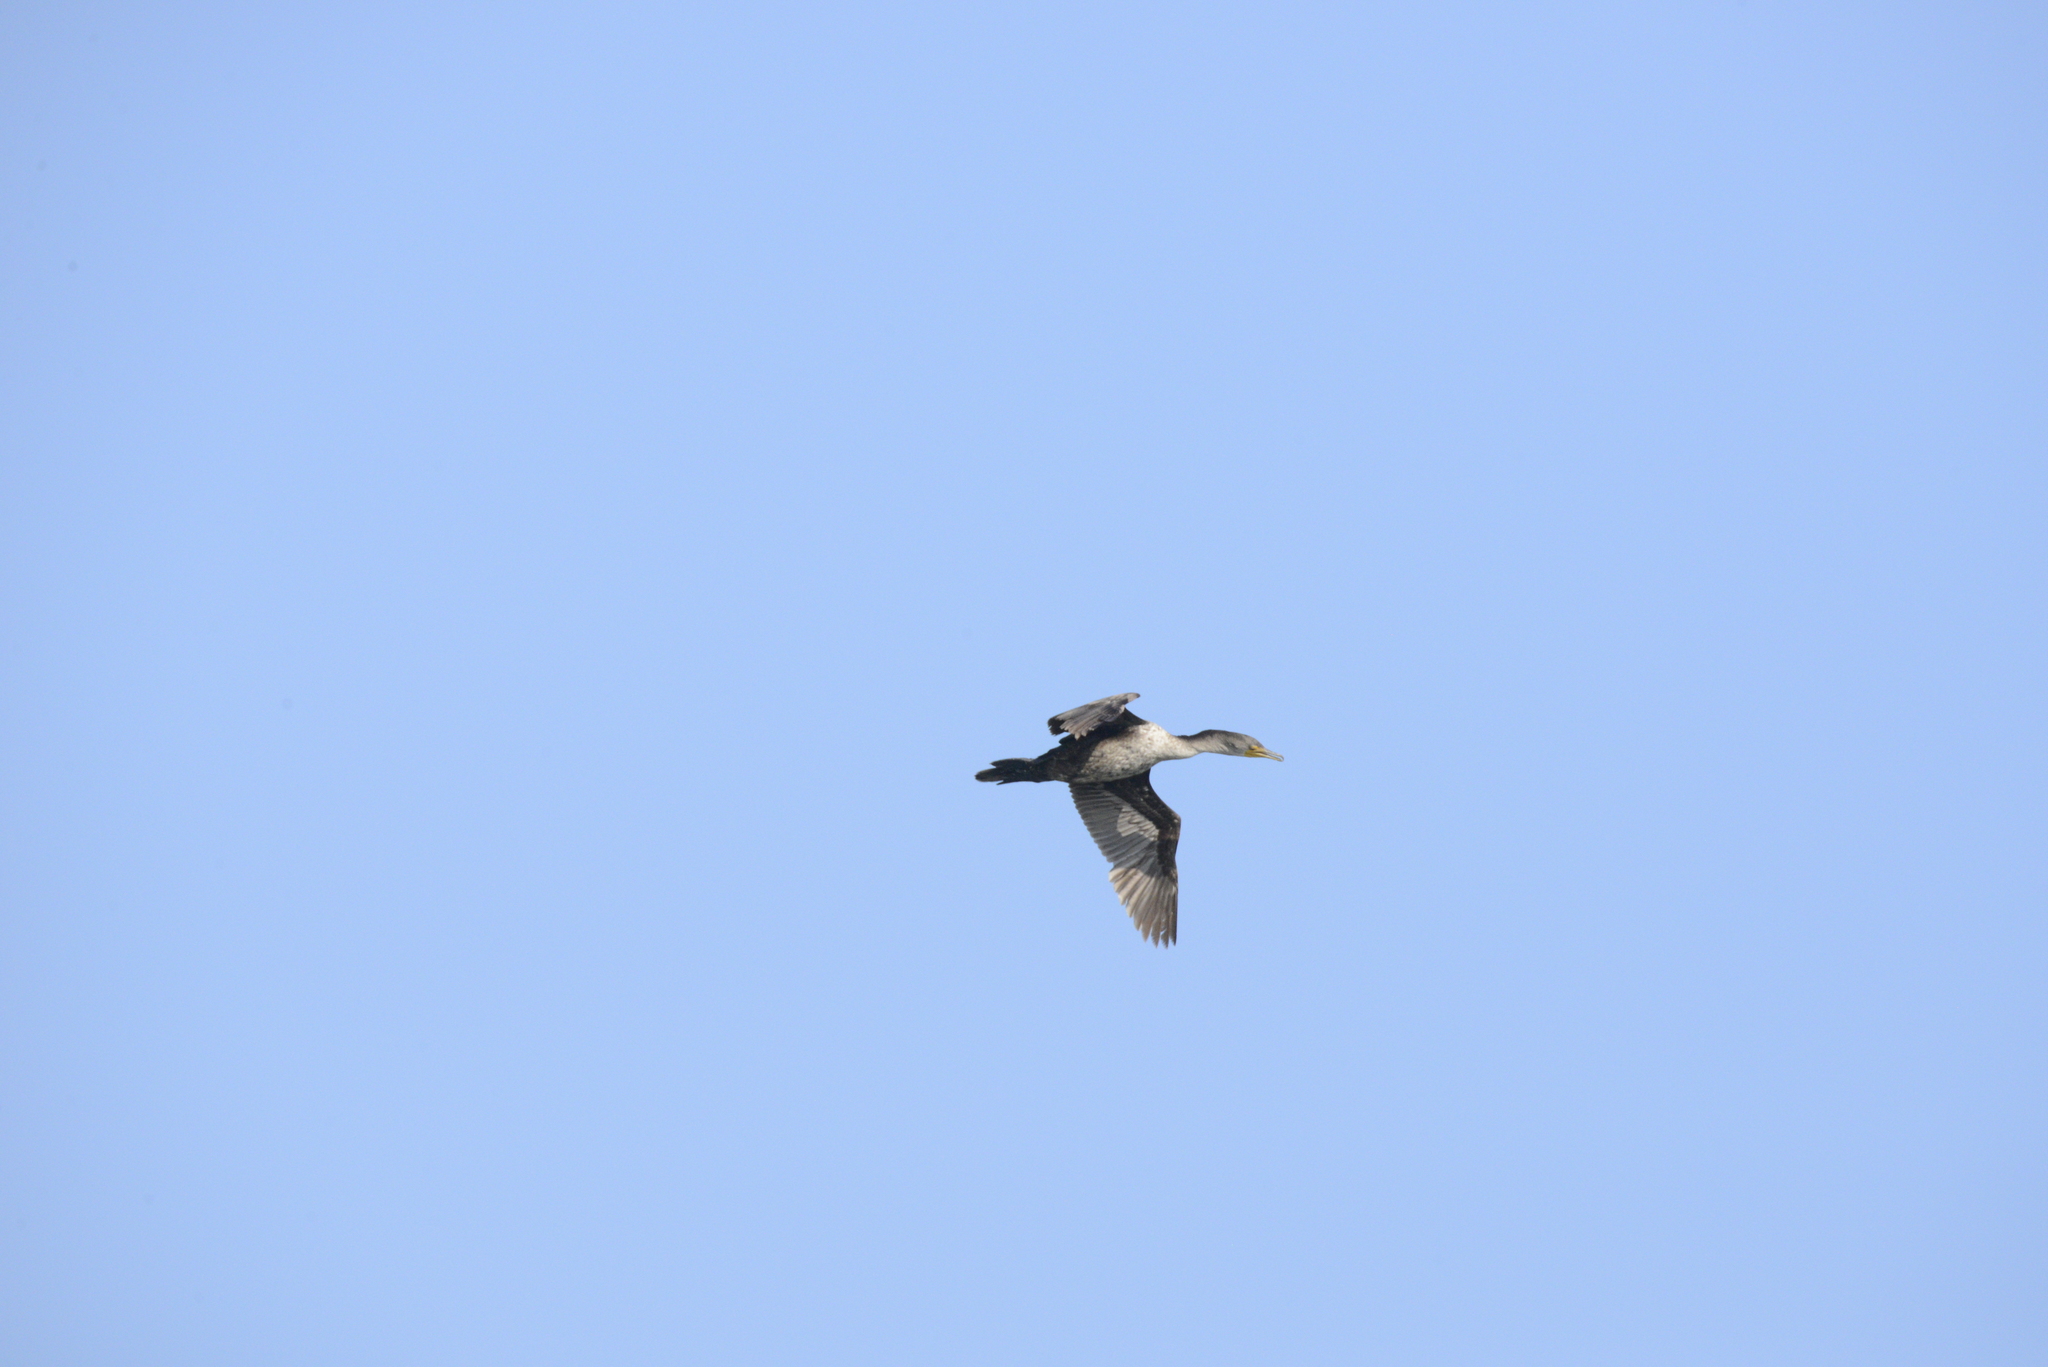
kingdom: Animalia
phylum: Chordata
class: Aves
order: Suliformes
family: Phalacrocoracidae
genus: Phalacrocorax
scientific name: Phalacrocorax auritus
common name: Double-crested cormorant
